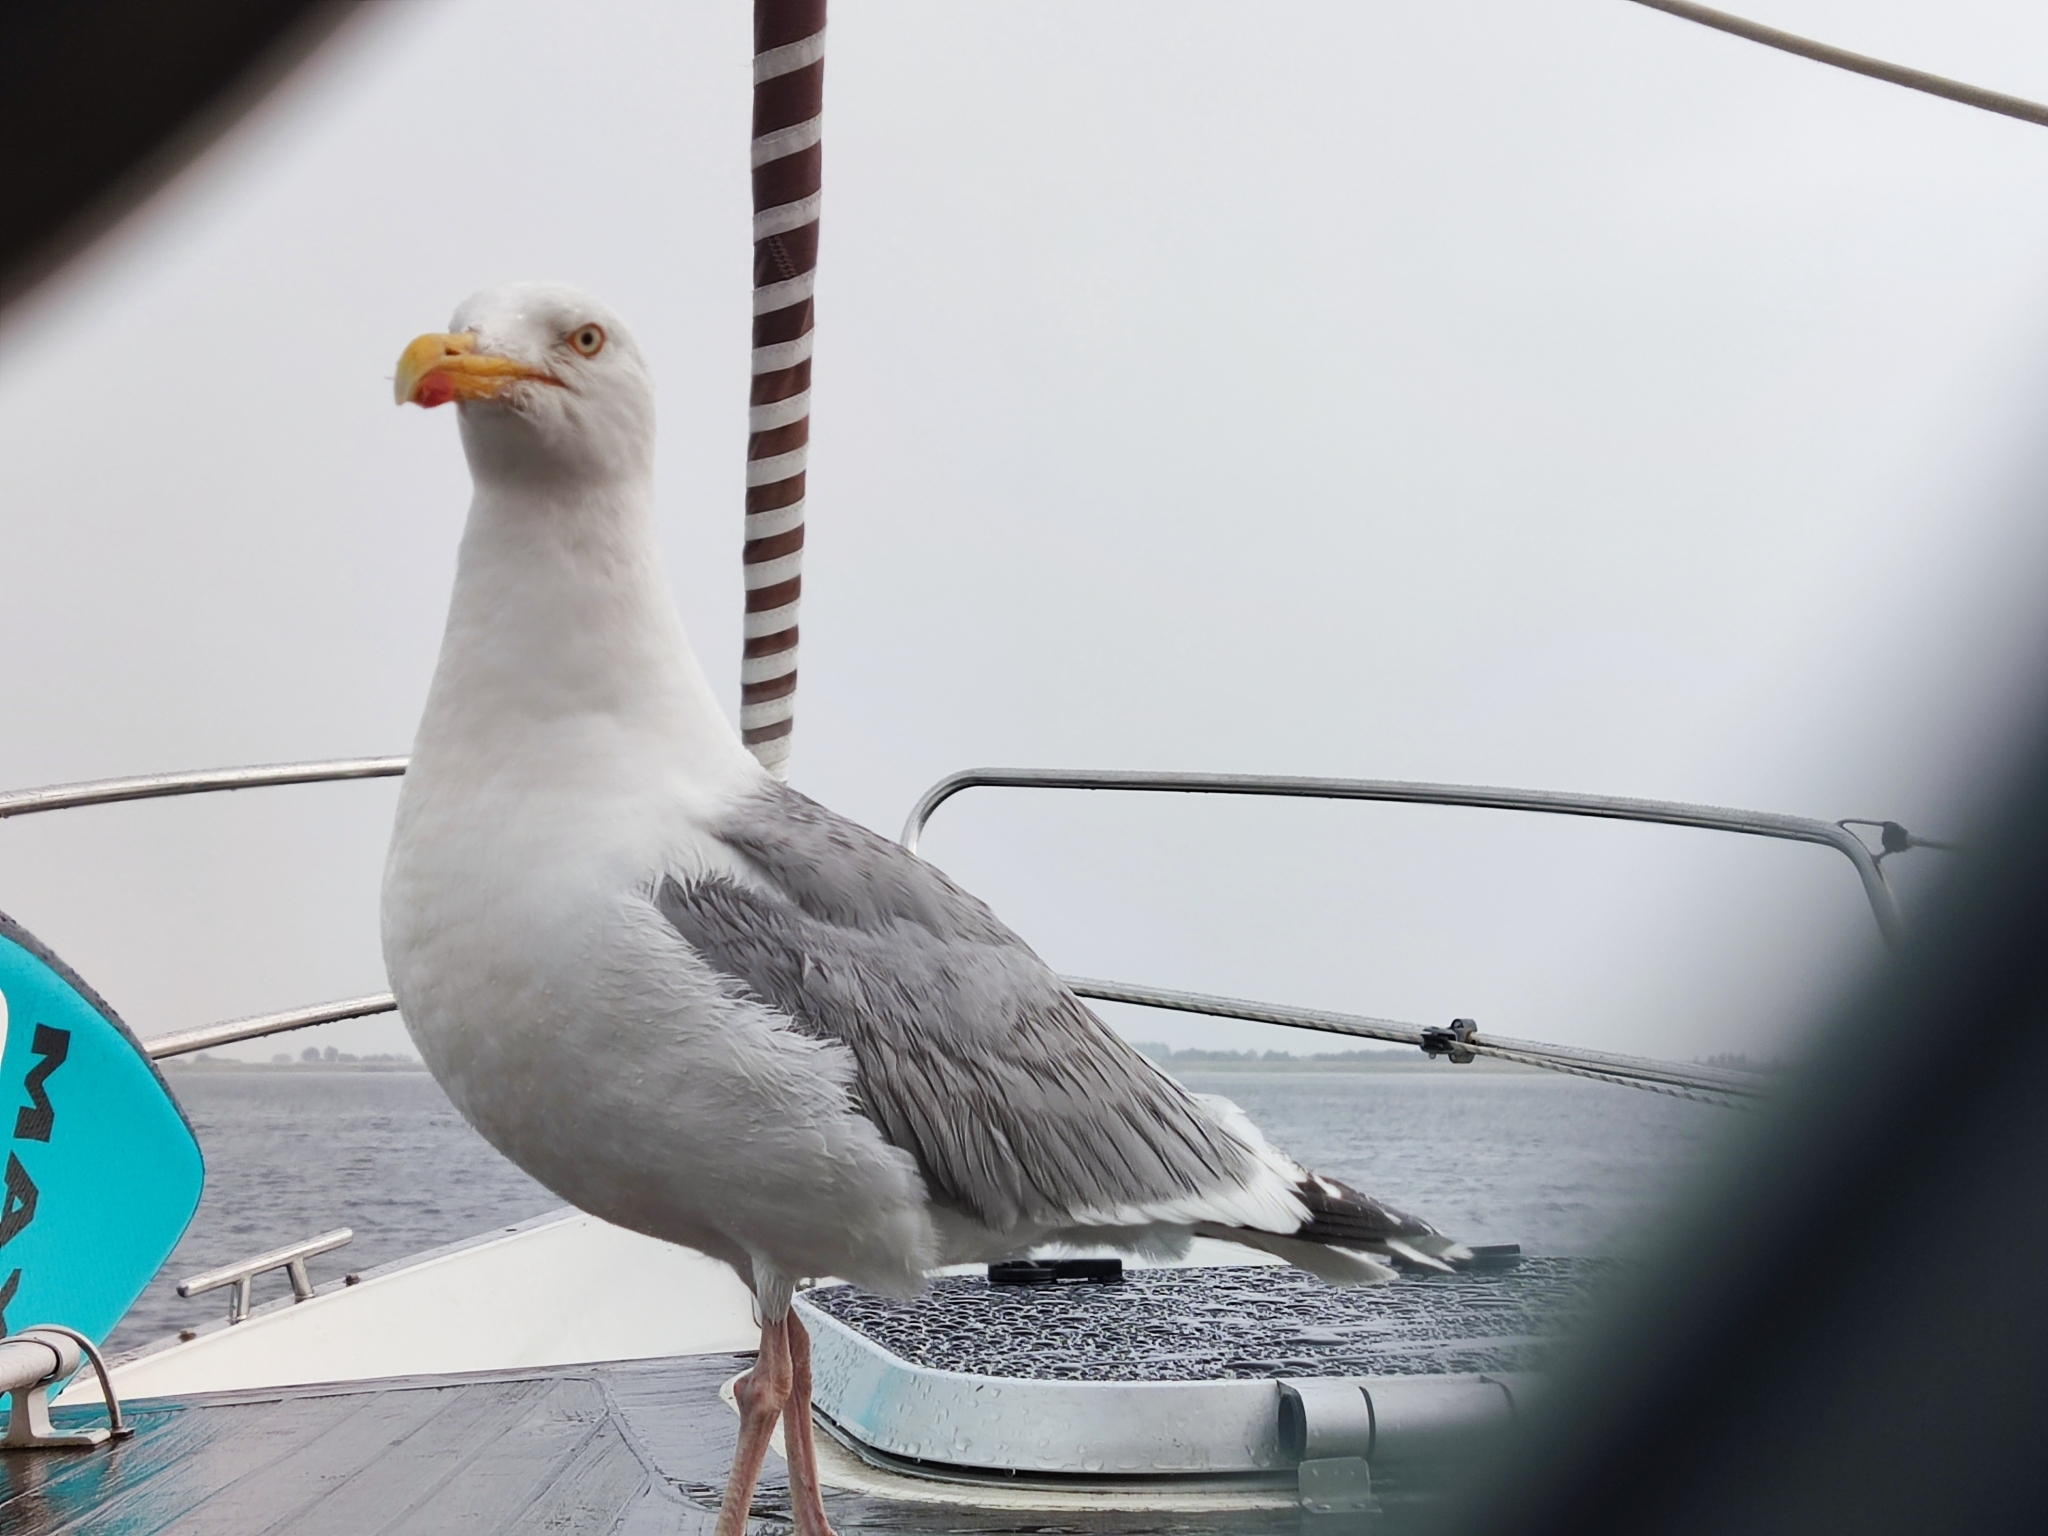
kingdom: Animalia
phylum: Chordata
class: Aves
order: Charadriiformes
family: Laridae
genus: Larus
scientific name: Larus argentatus
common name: Herring gull
